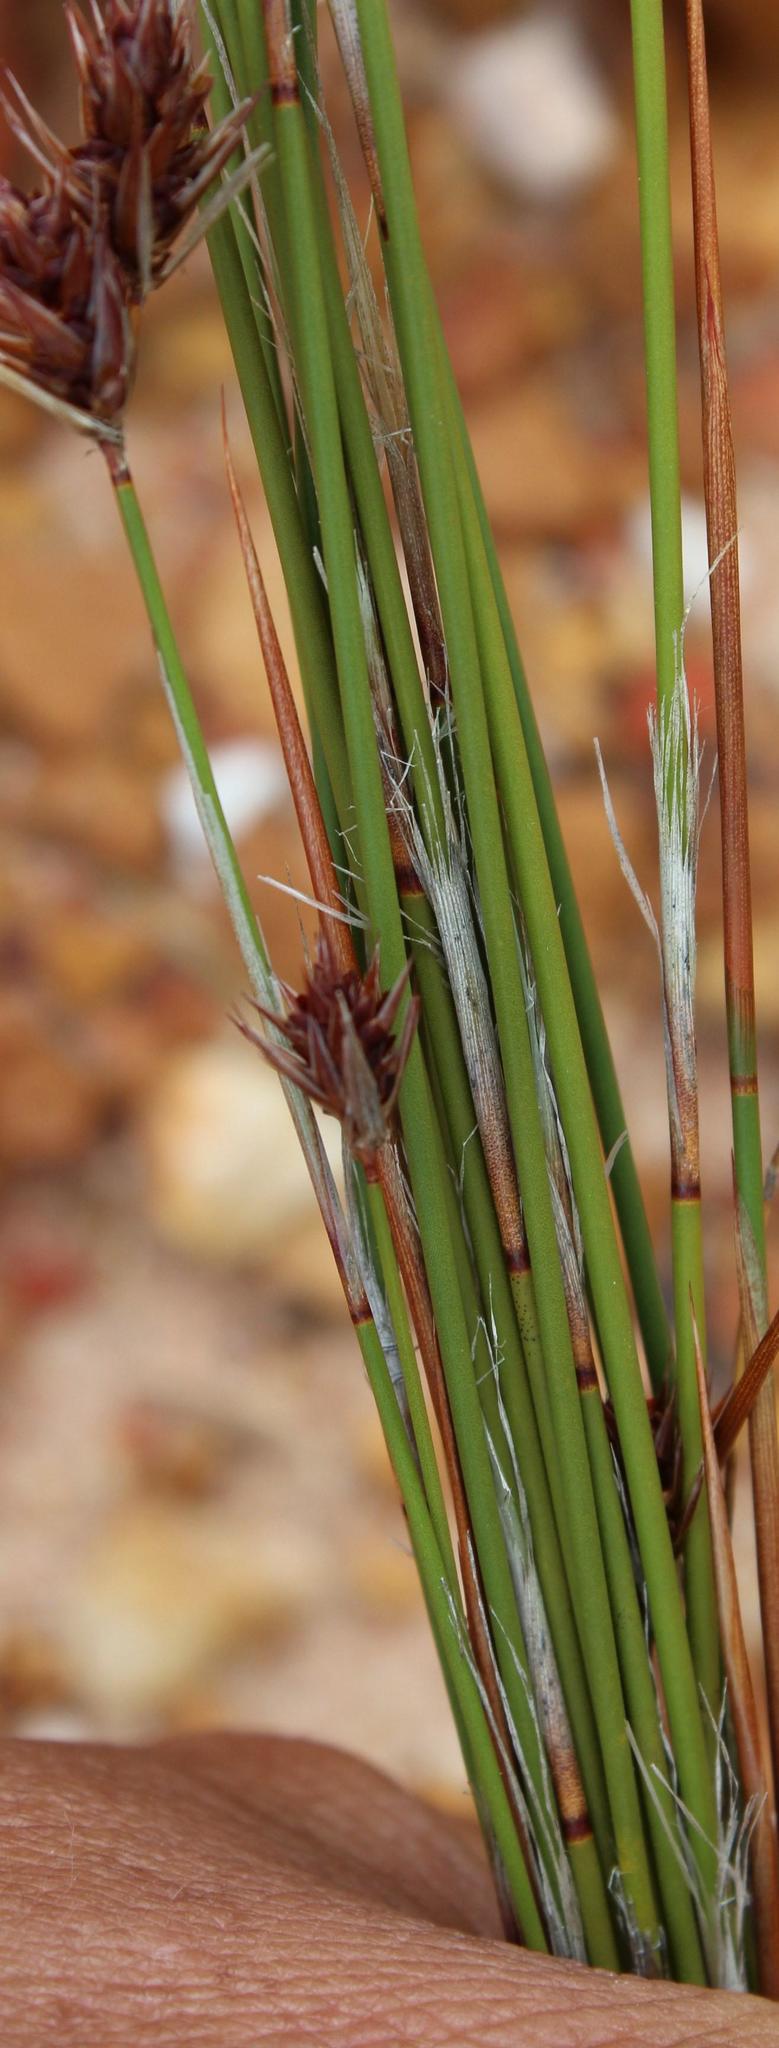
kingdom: Plantae
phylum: Tracheophyta
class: Liliopsida
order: Poales
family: Restionaceae
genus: Thamnochortus
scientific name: Thamnochortus lucens
